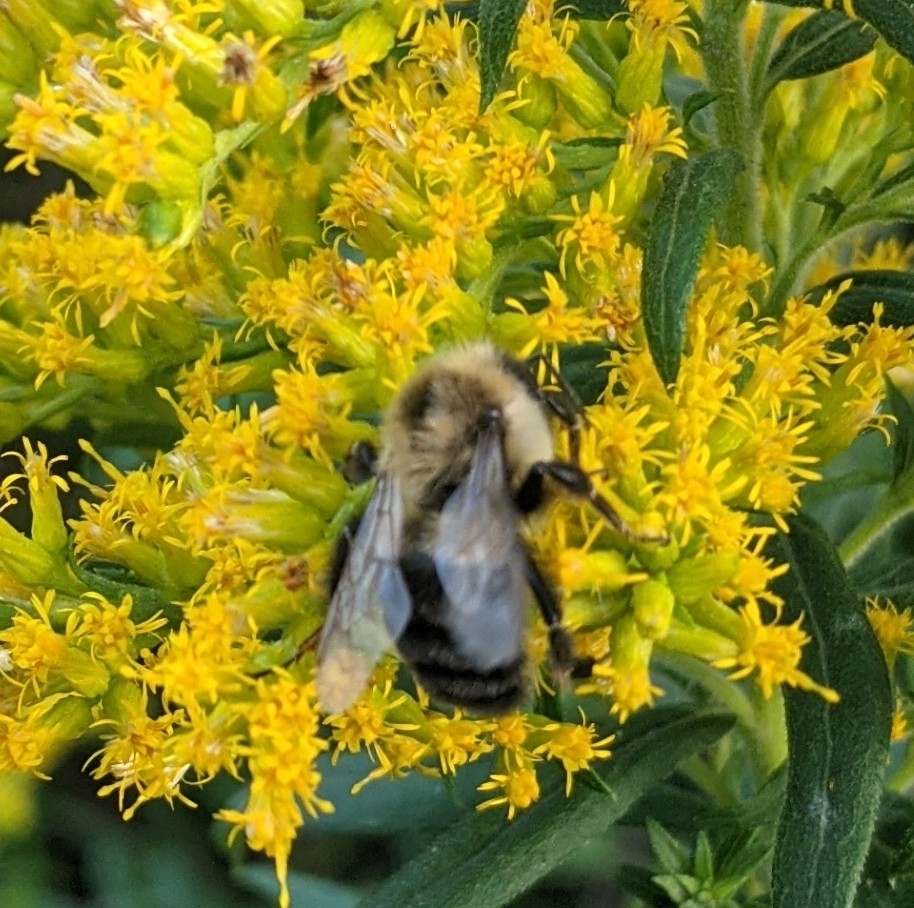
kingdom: Animalia
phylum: Arthropoda
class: Insecta
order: Hymenoptera
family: Apidae
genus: Bombus
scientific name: Bombus impatiens
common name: Common eastern bumble bee
